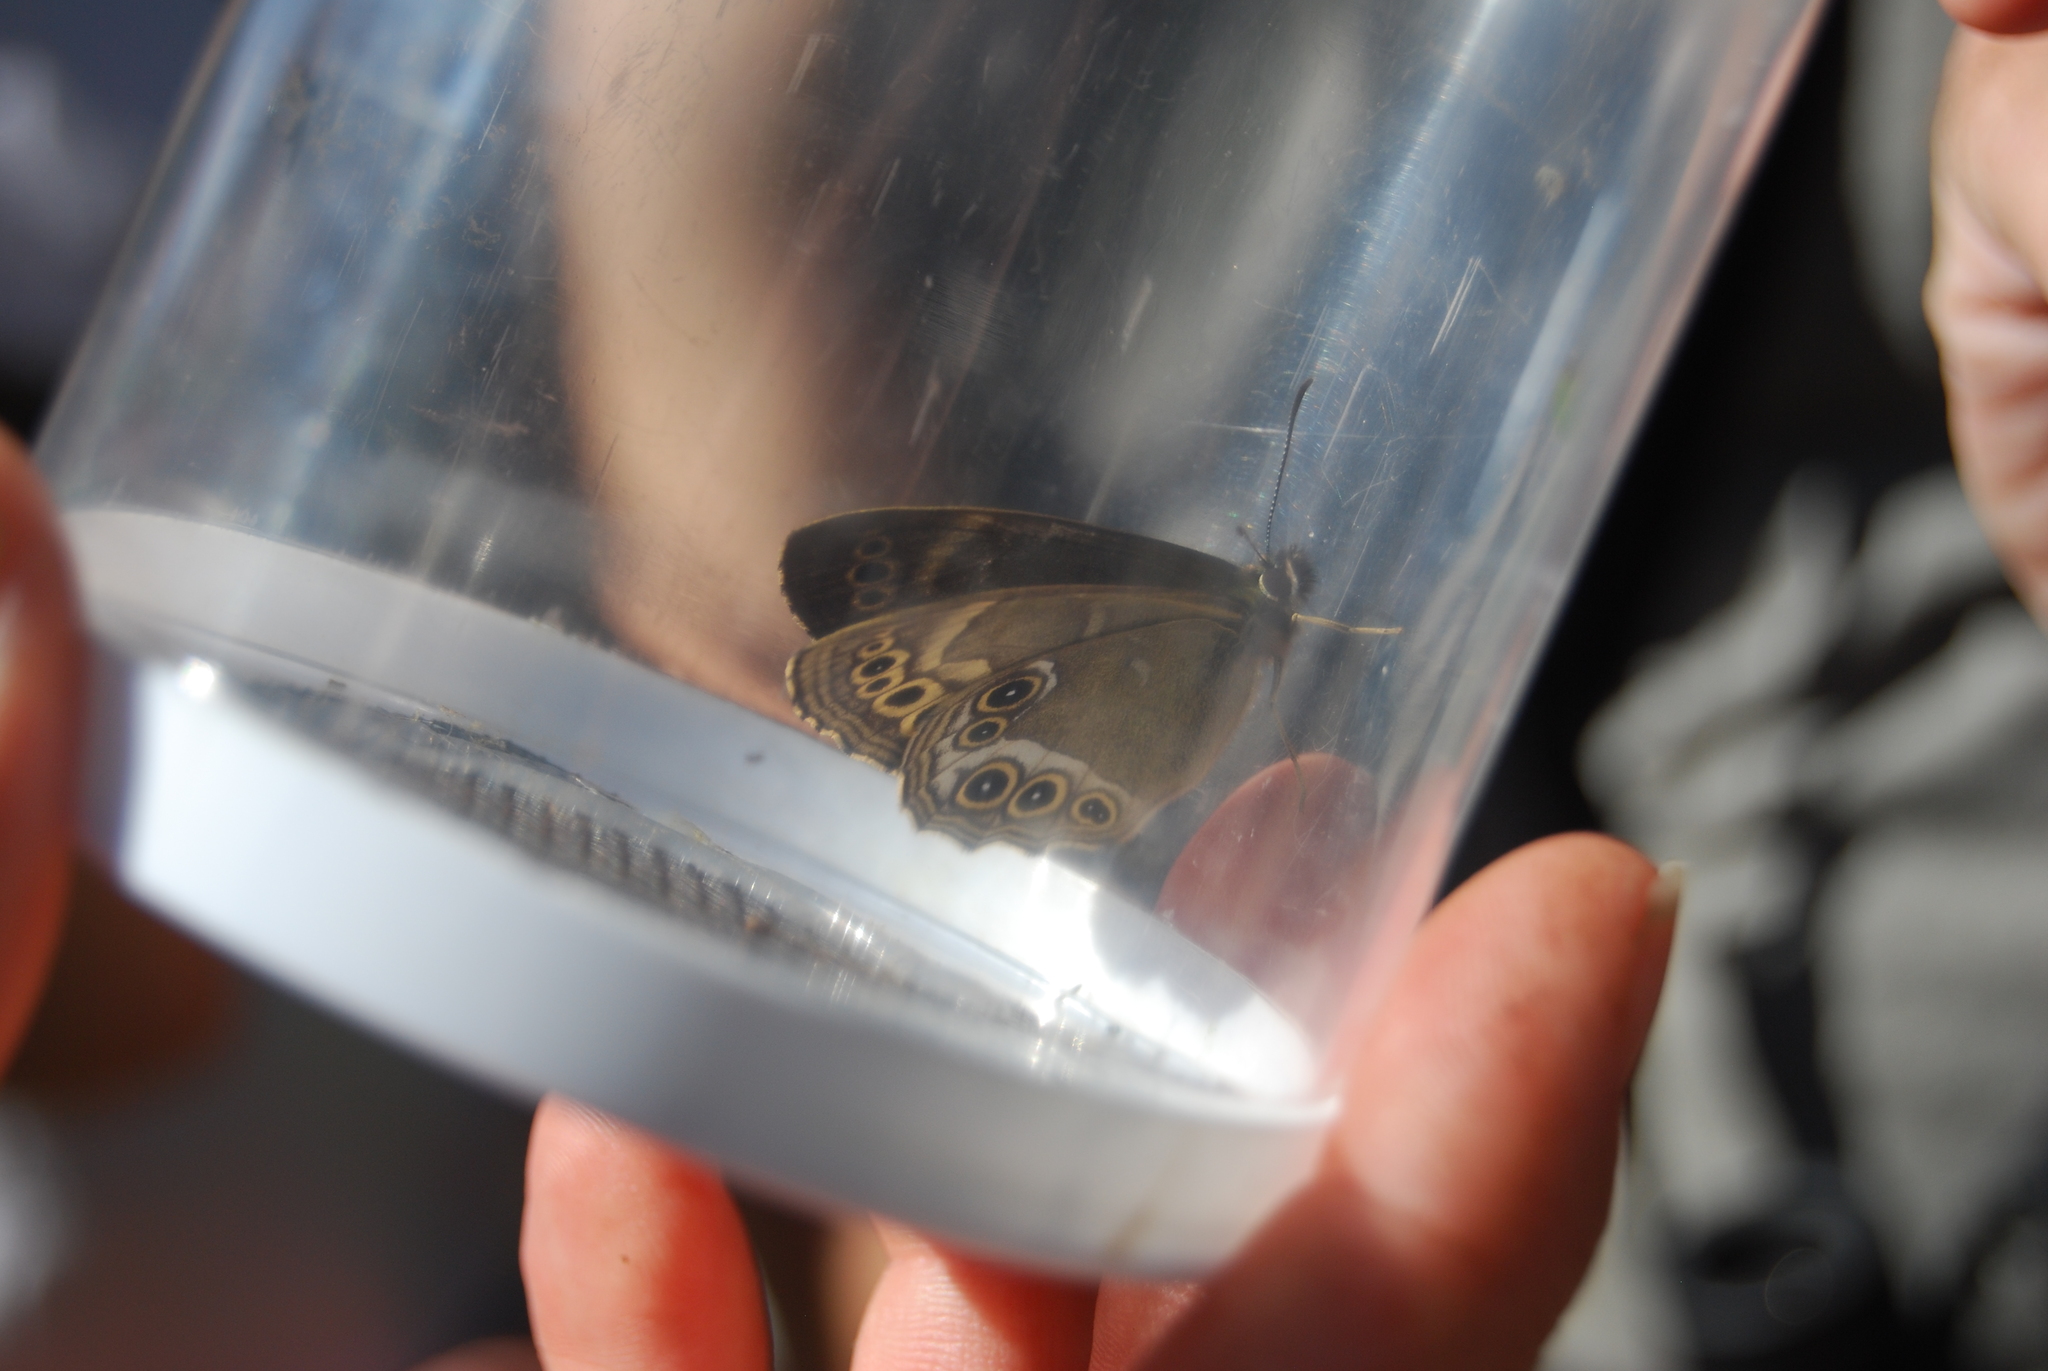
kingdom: Animalia
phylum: Arthropoda
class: Insecta
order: Lepidoptera
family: Nymphalidae
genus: Pararge
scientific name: Pararge Lopinga achine
